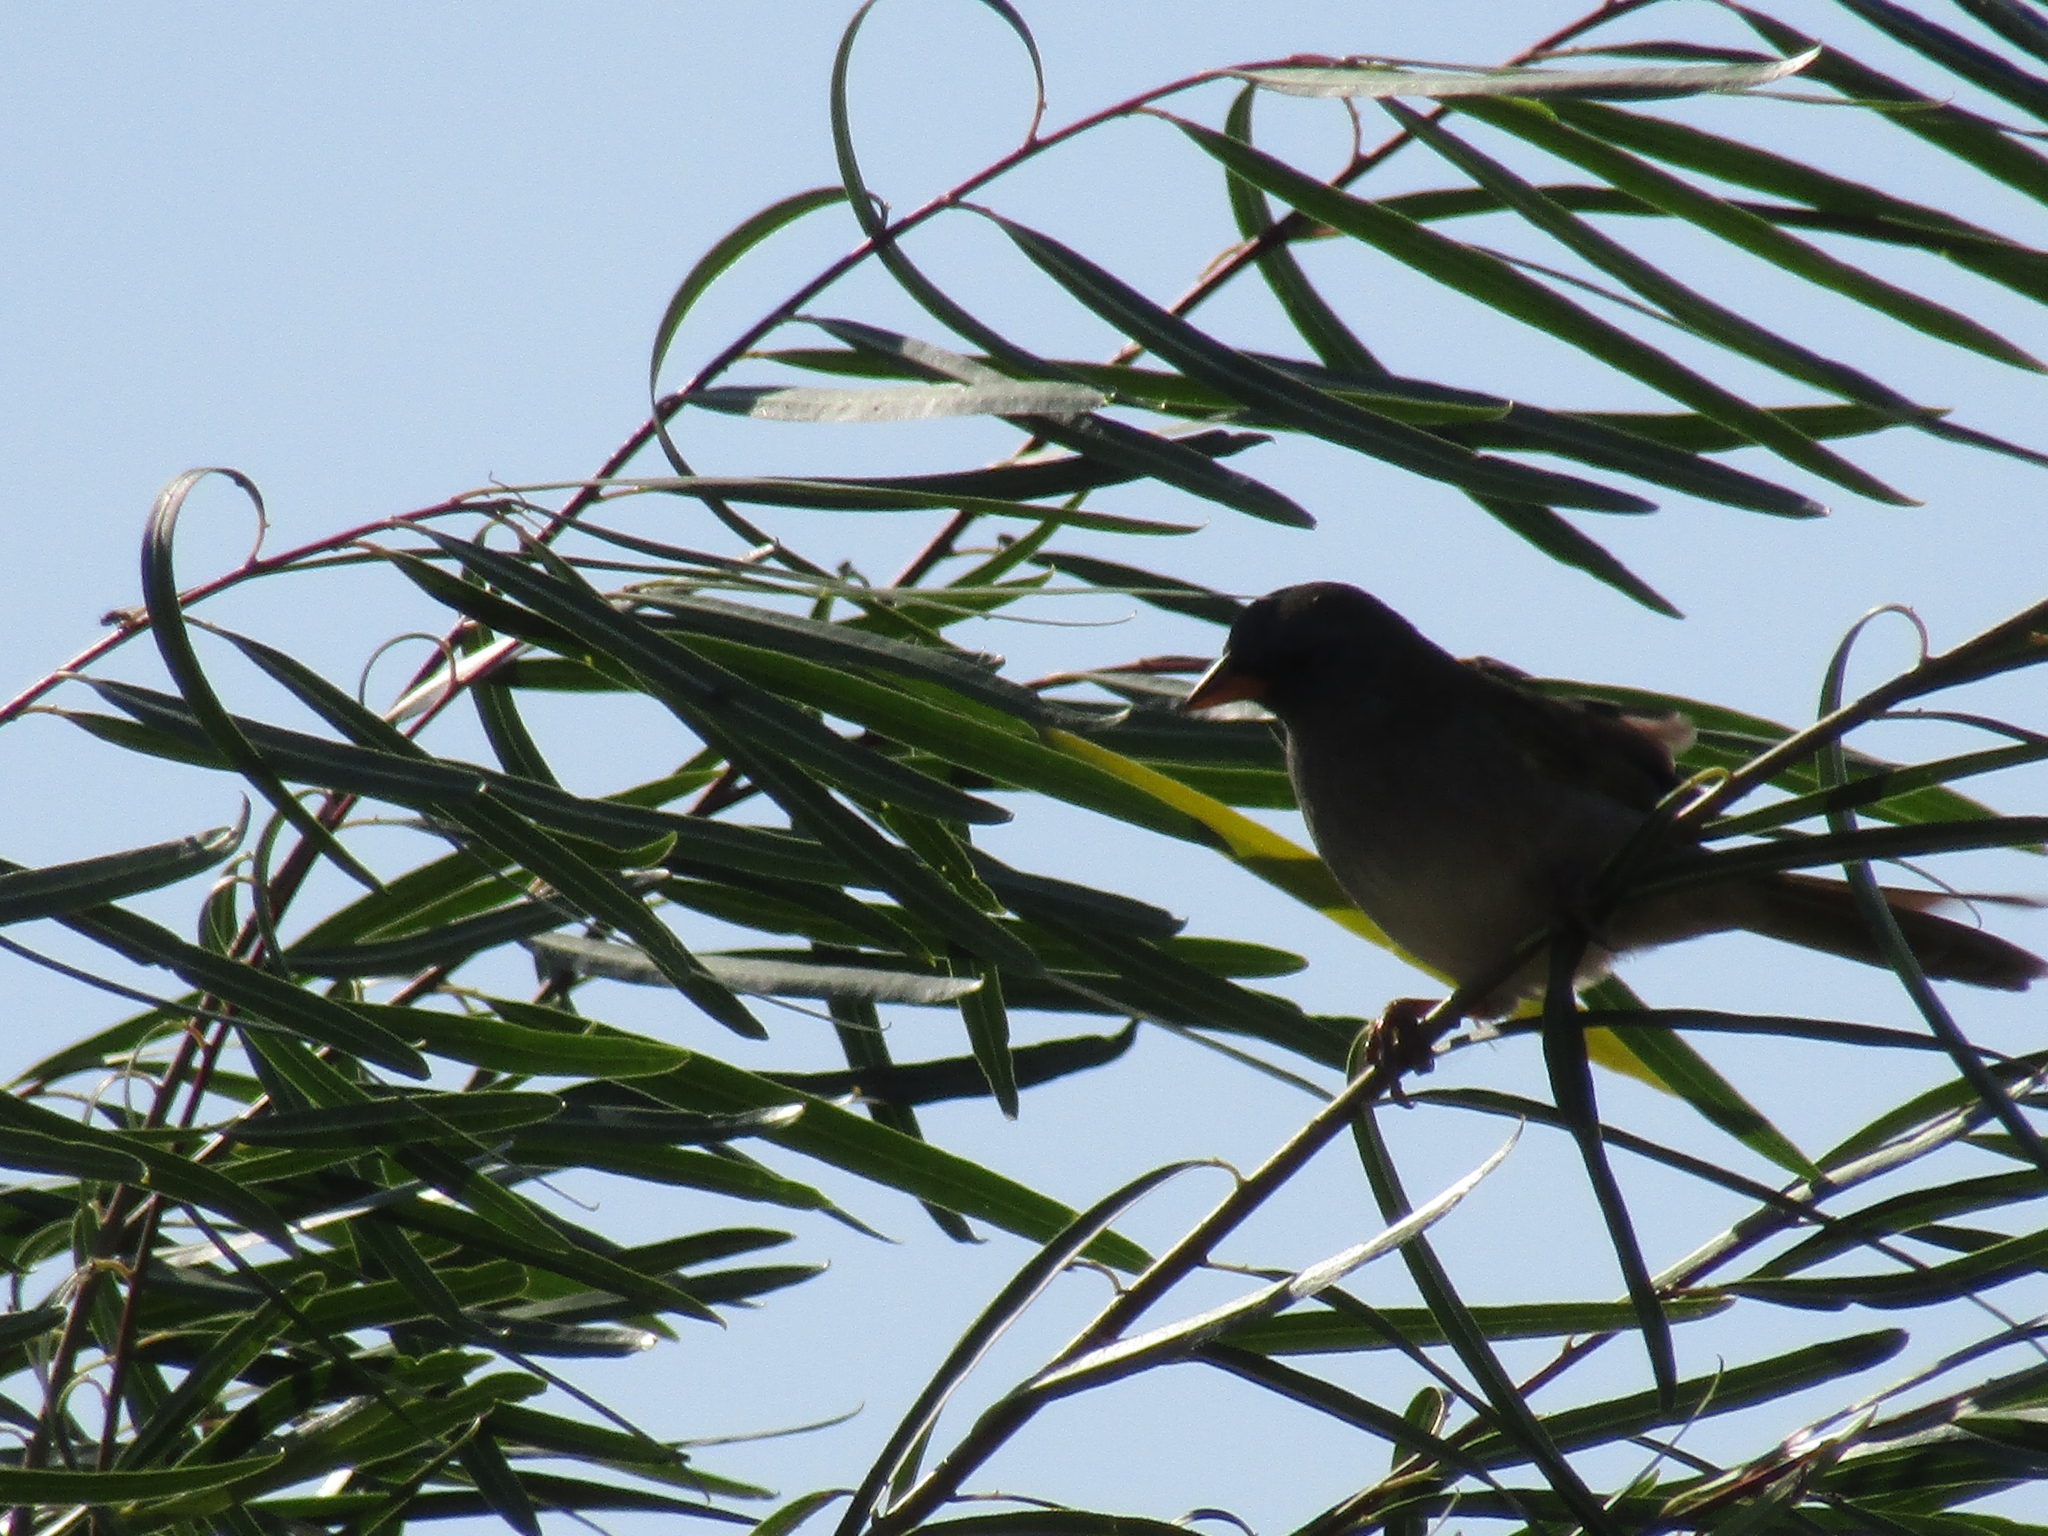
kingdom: Animalia
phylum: Chordata
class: Aves
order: Passeriformes
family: Thraupidae
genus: Embernagra
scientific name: Embernagra platensis
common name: Pampa finch
